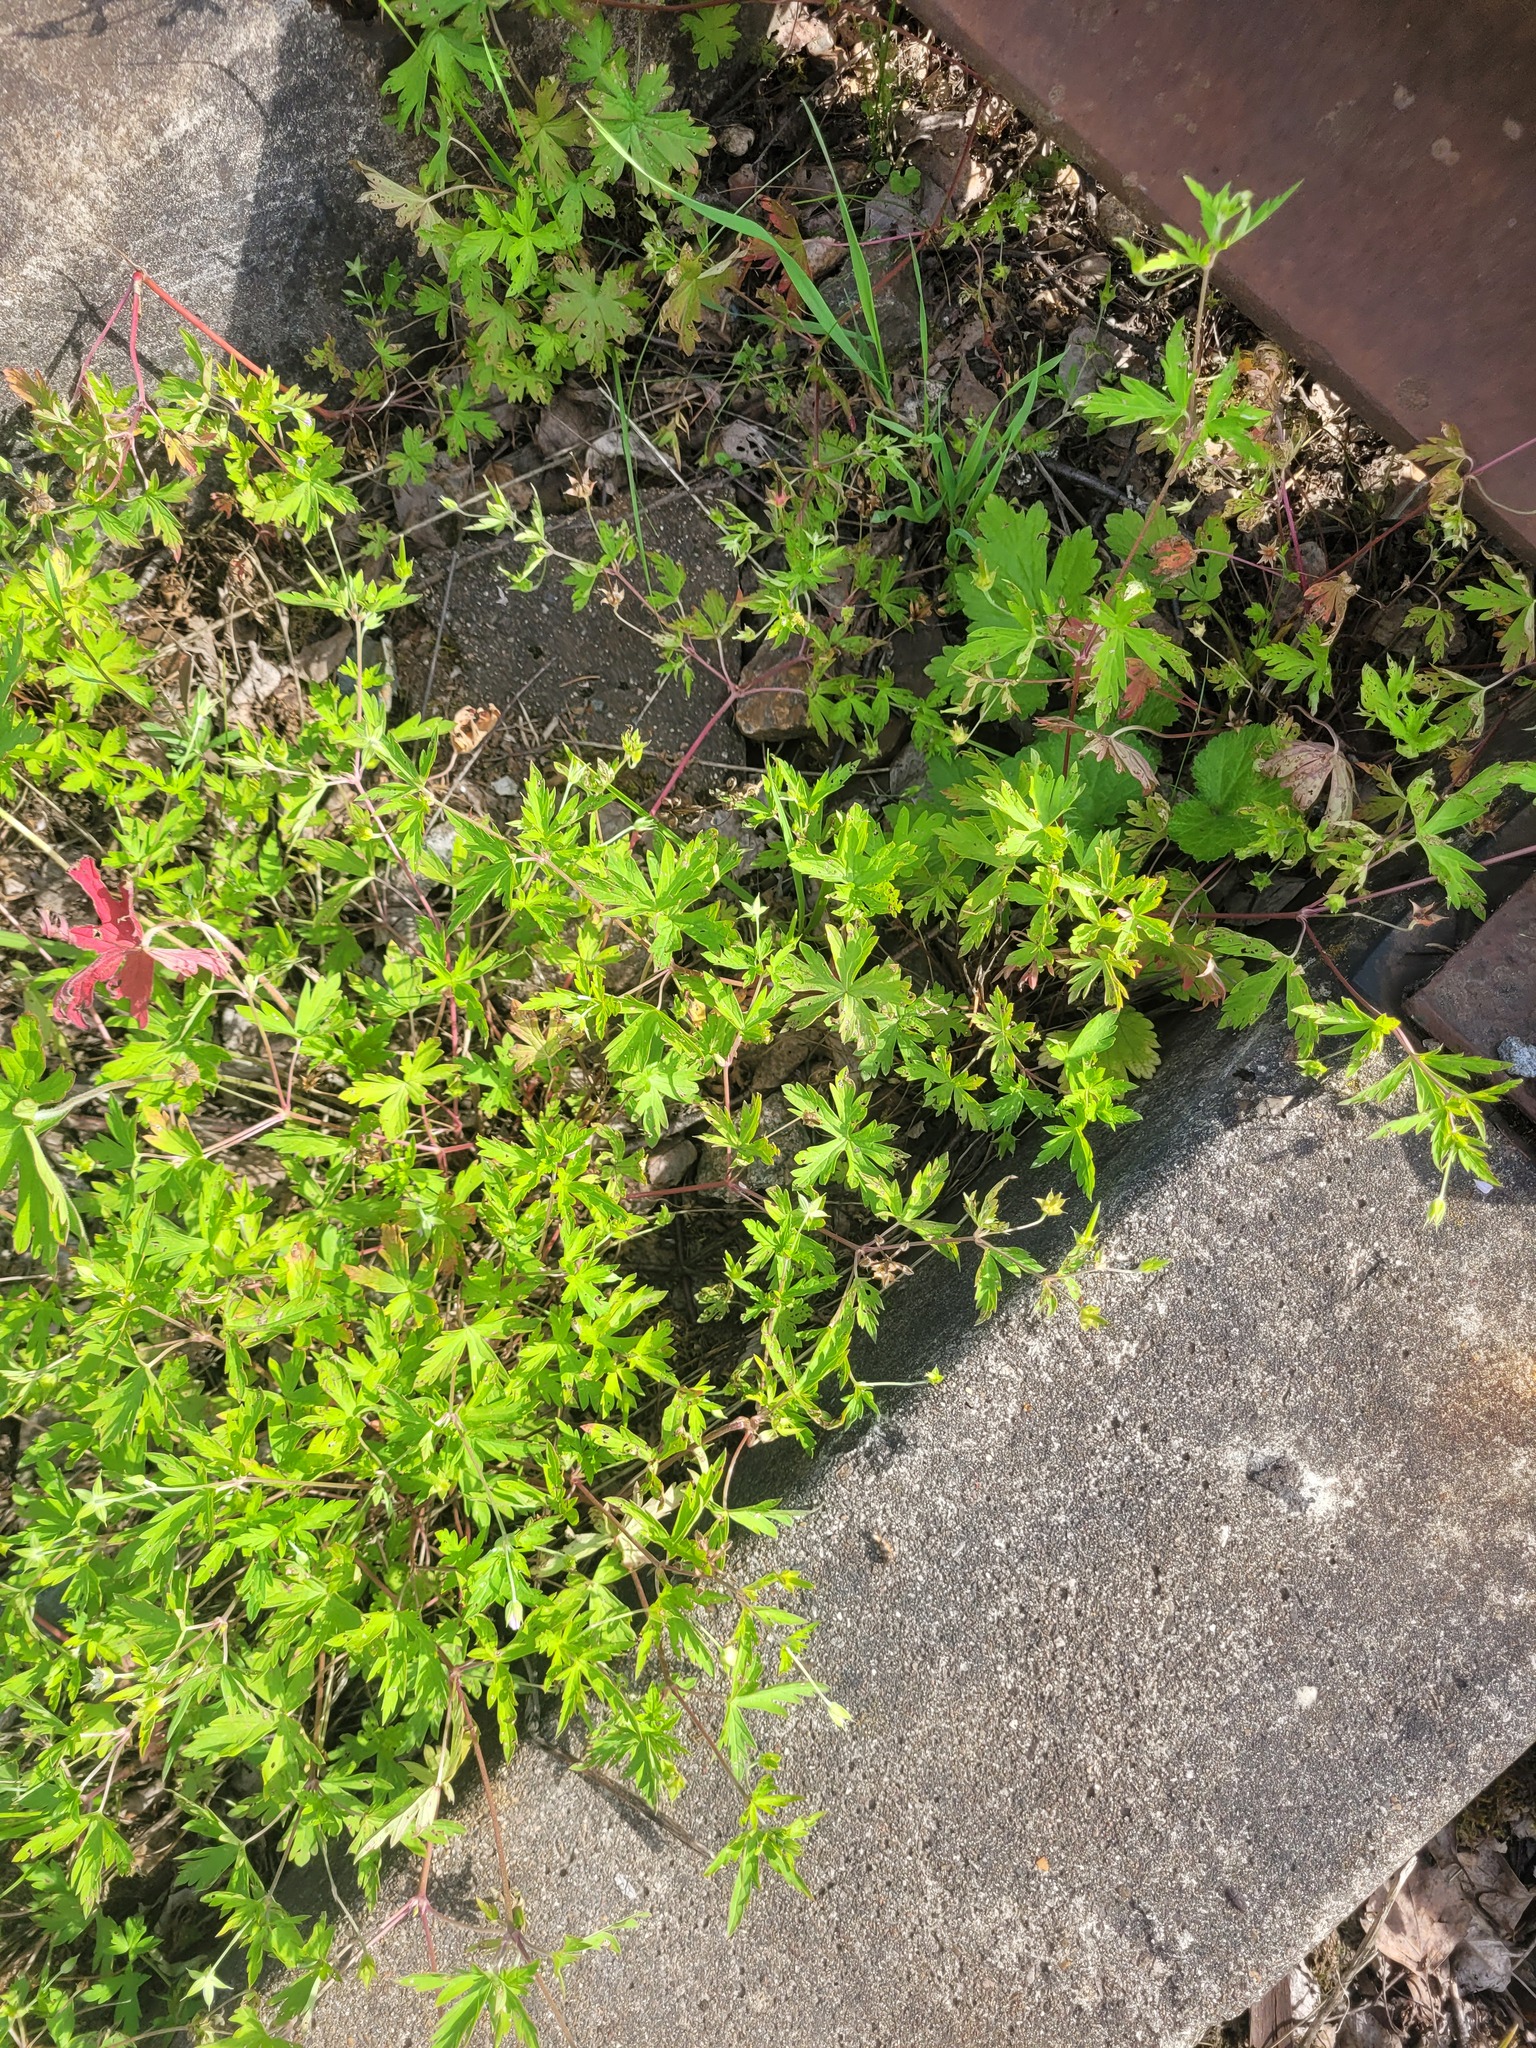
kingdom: Plantae
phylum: Tracheophyta
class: Magnoliopsida
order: Geraniales
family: Geraniaceae
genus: Geranium
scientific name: Geranium sibiricum
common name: Siberian crane's-bill
